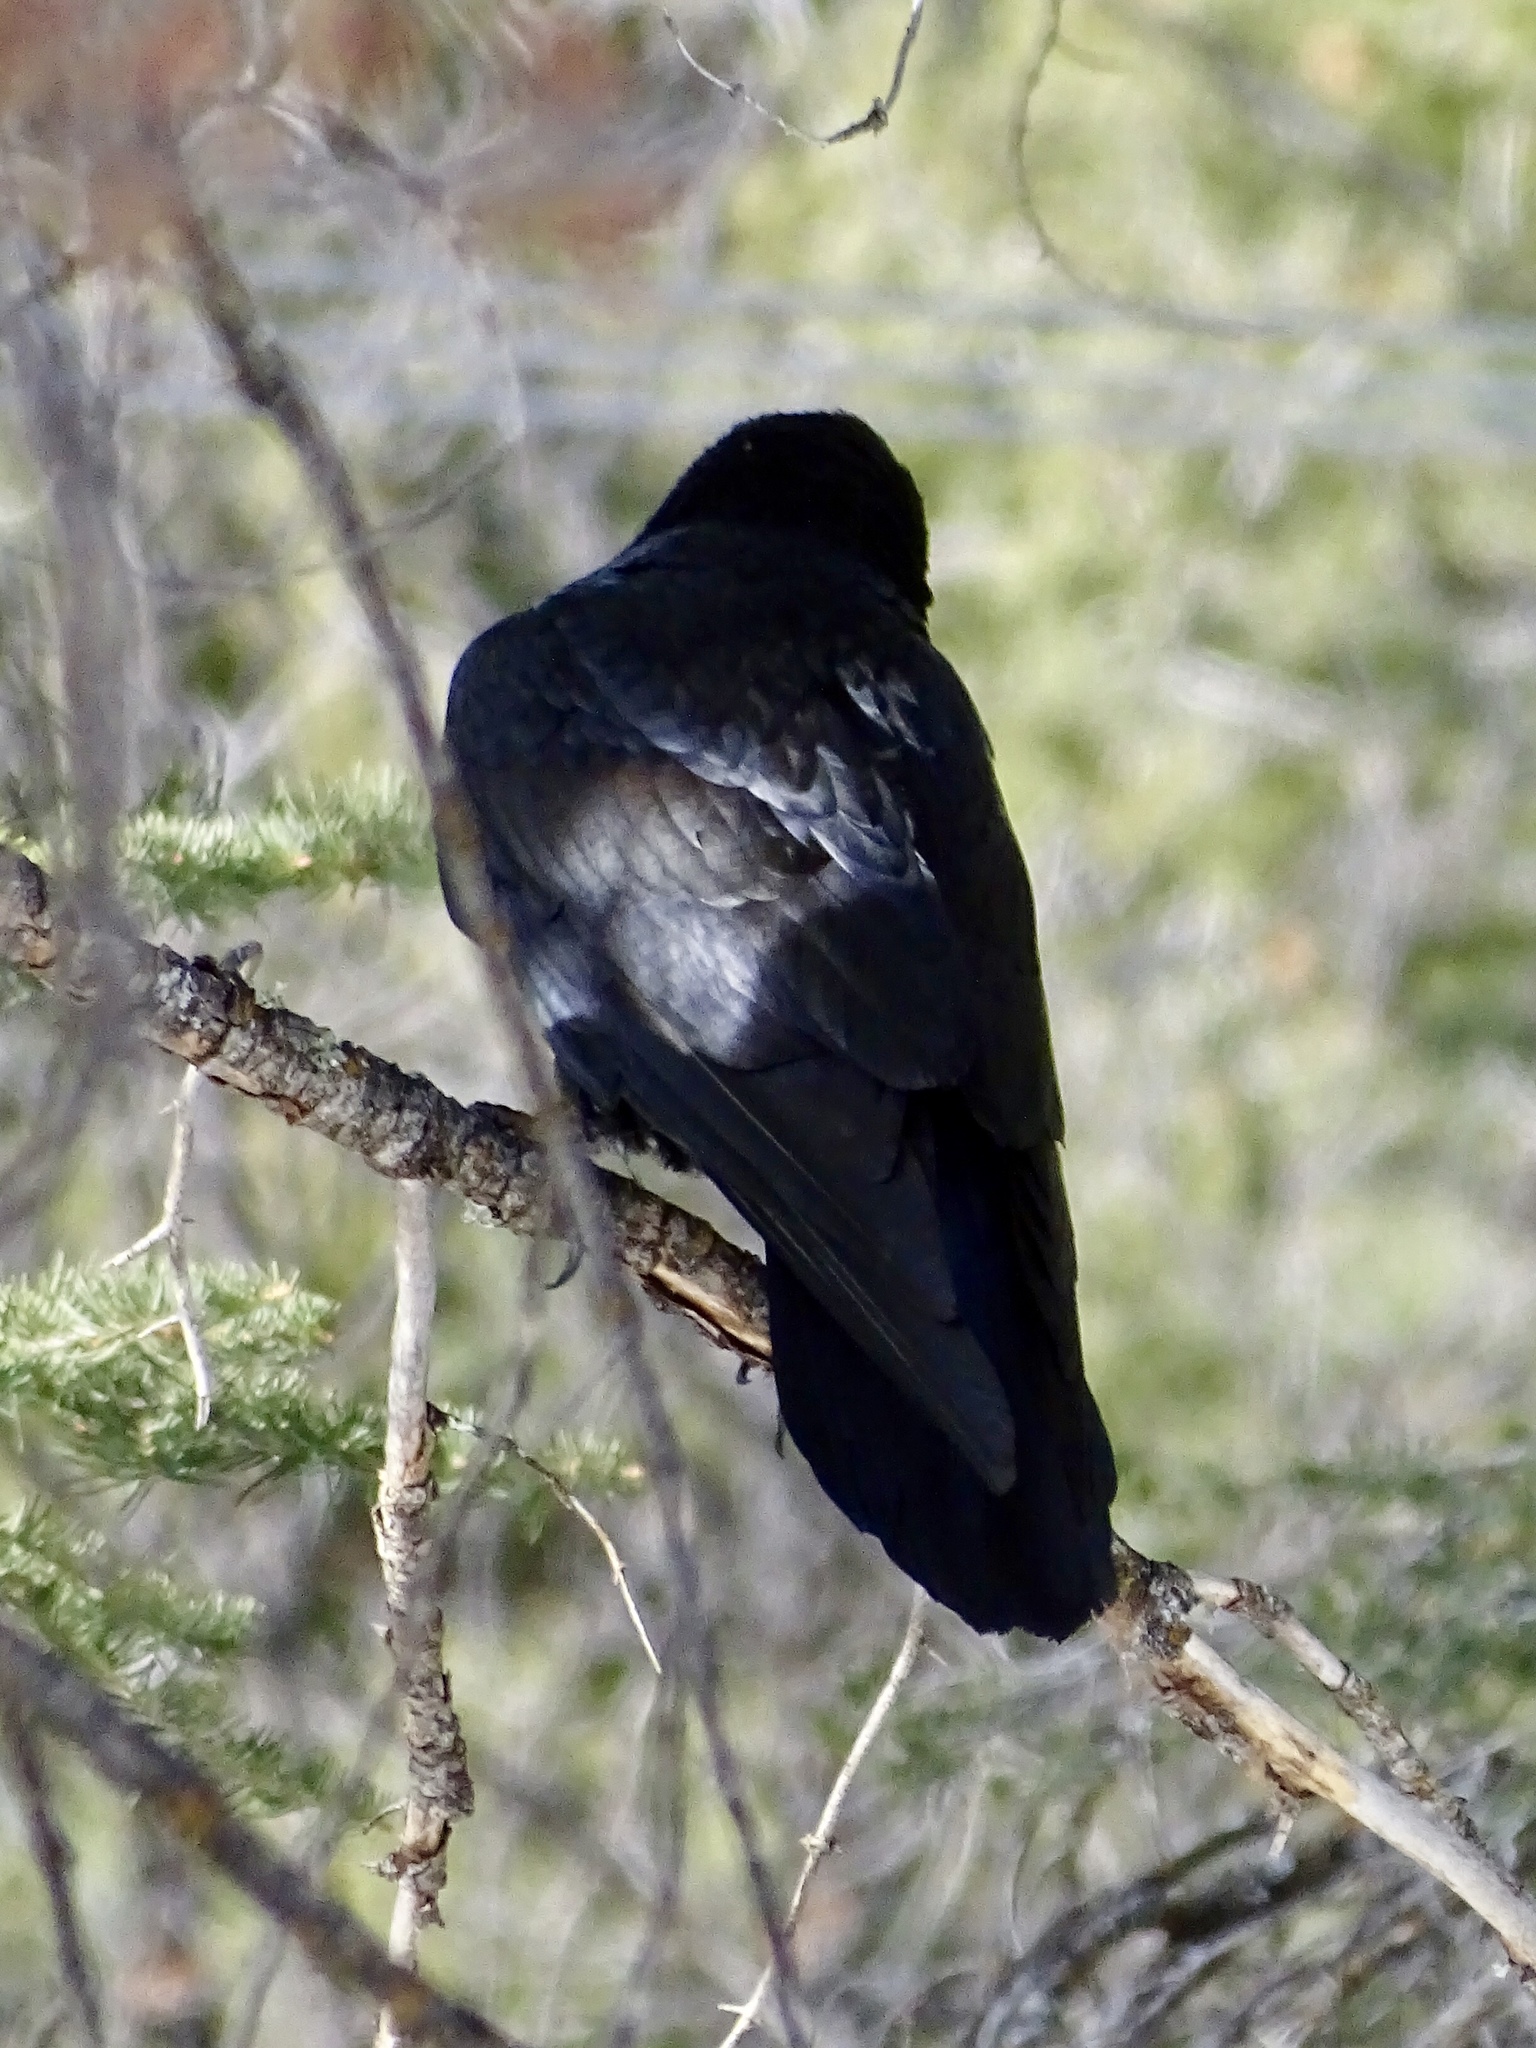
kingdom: Animalia
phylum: Chordata
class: Aves
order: Passeriformes
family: Corvidae
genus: Corvus
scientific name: Corvus corax
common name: Common raven
